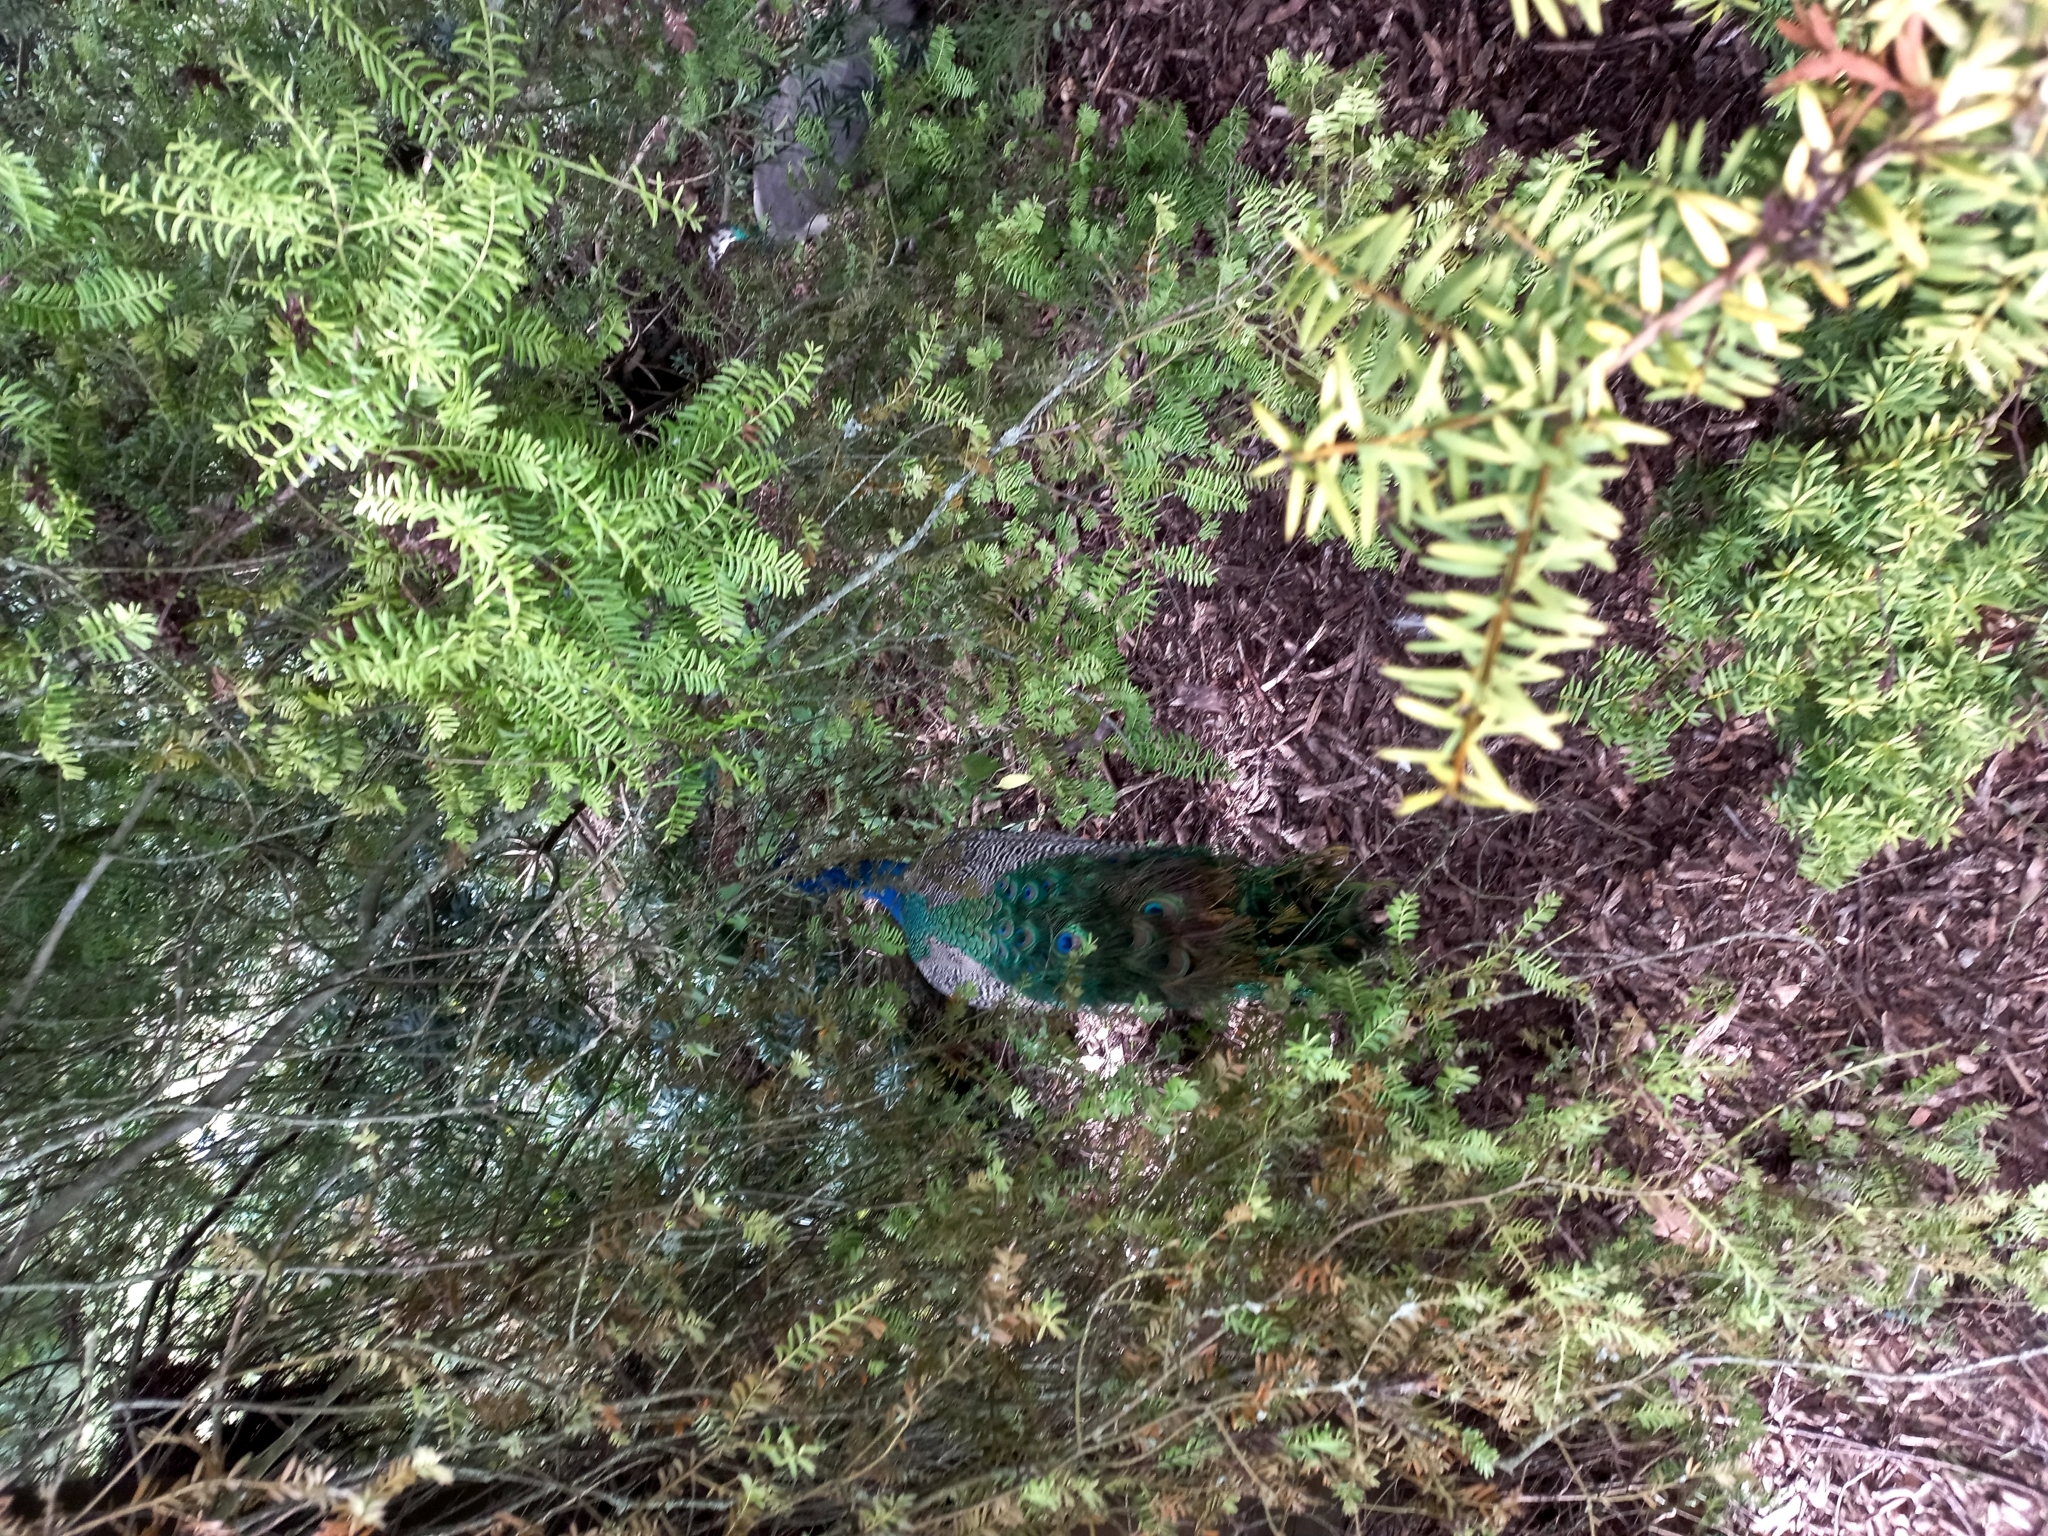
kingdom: Animalia
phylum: Chordata
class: Aves
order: Galliformes
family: Phasianidae
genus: Pavo
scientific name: Pavo cristatus
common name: Indian peafowl
